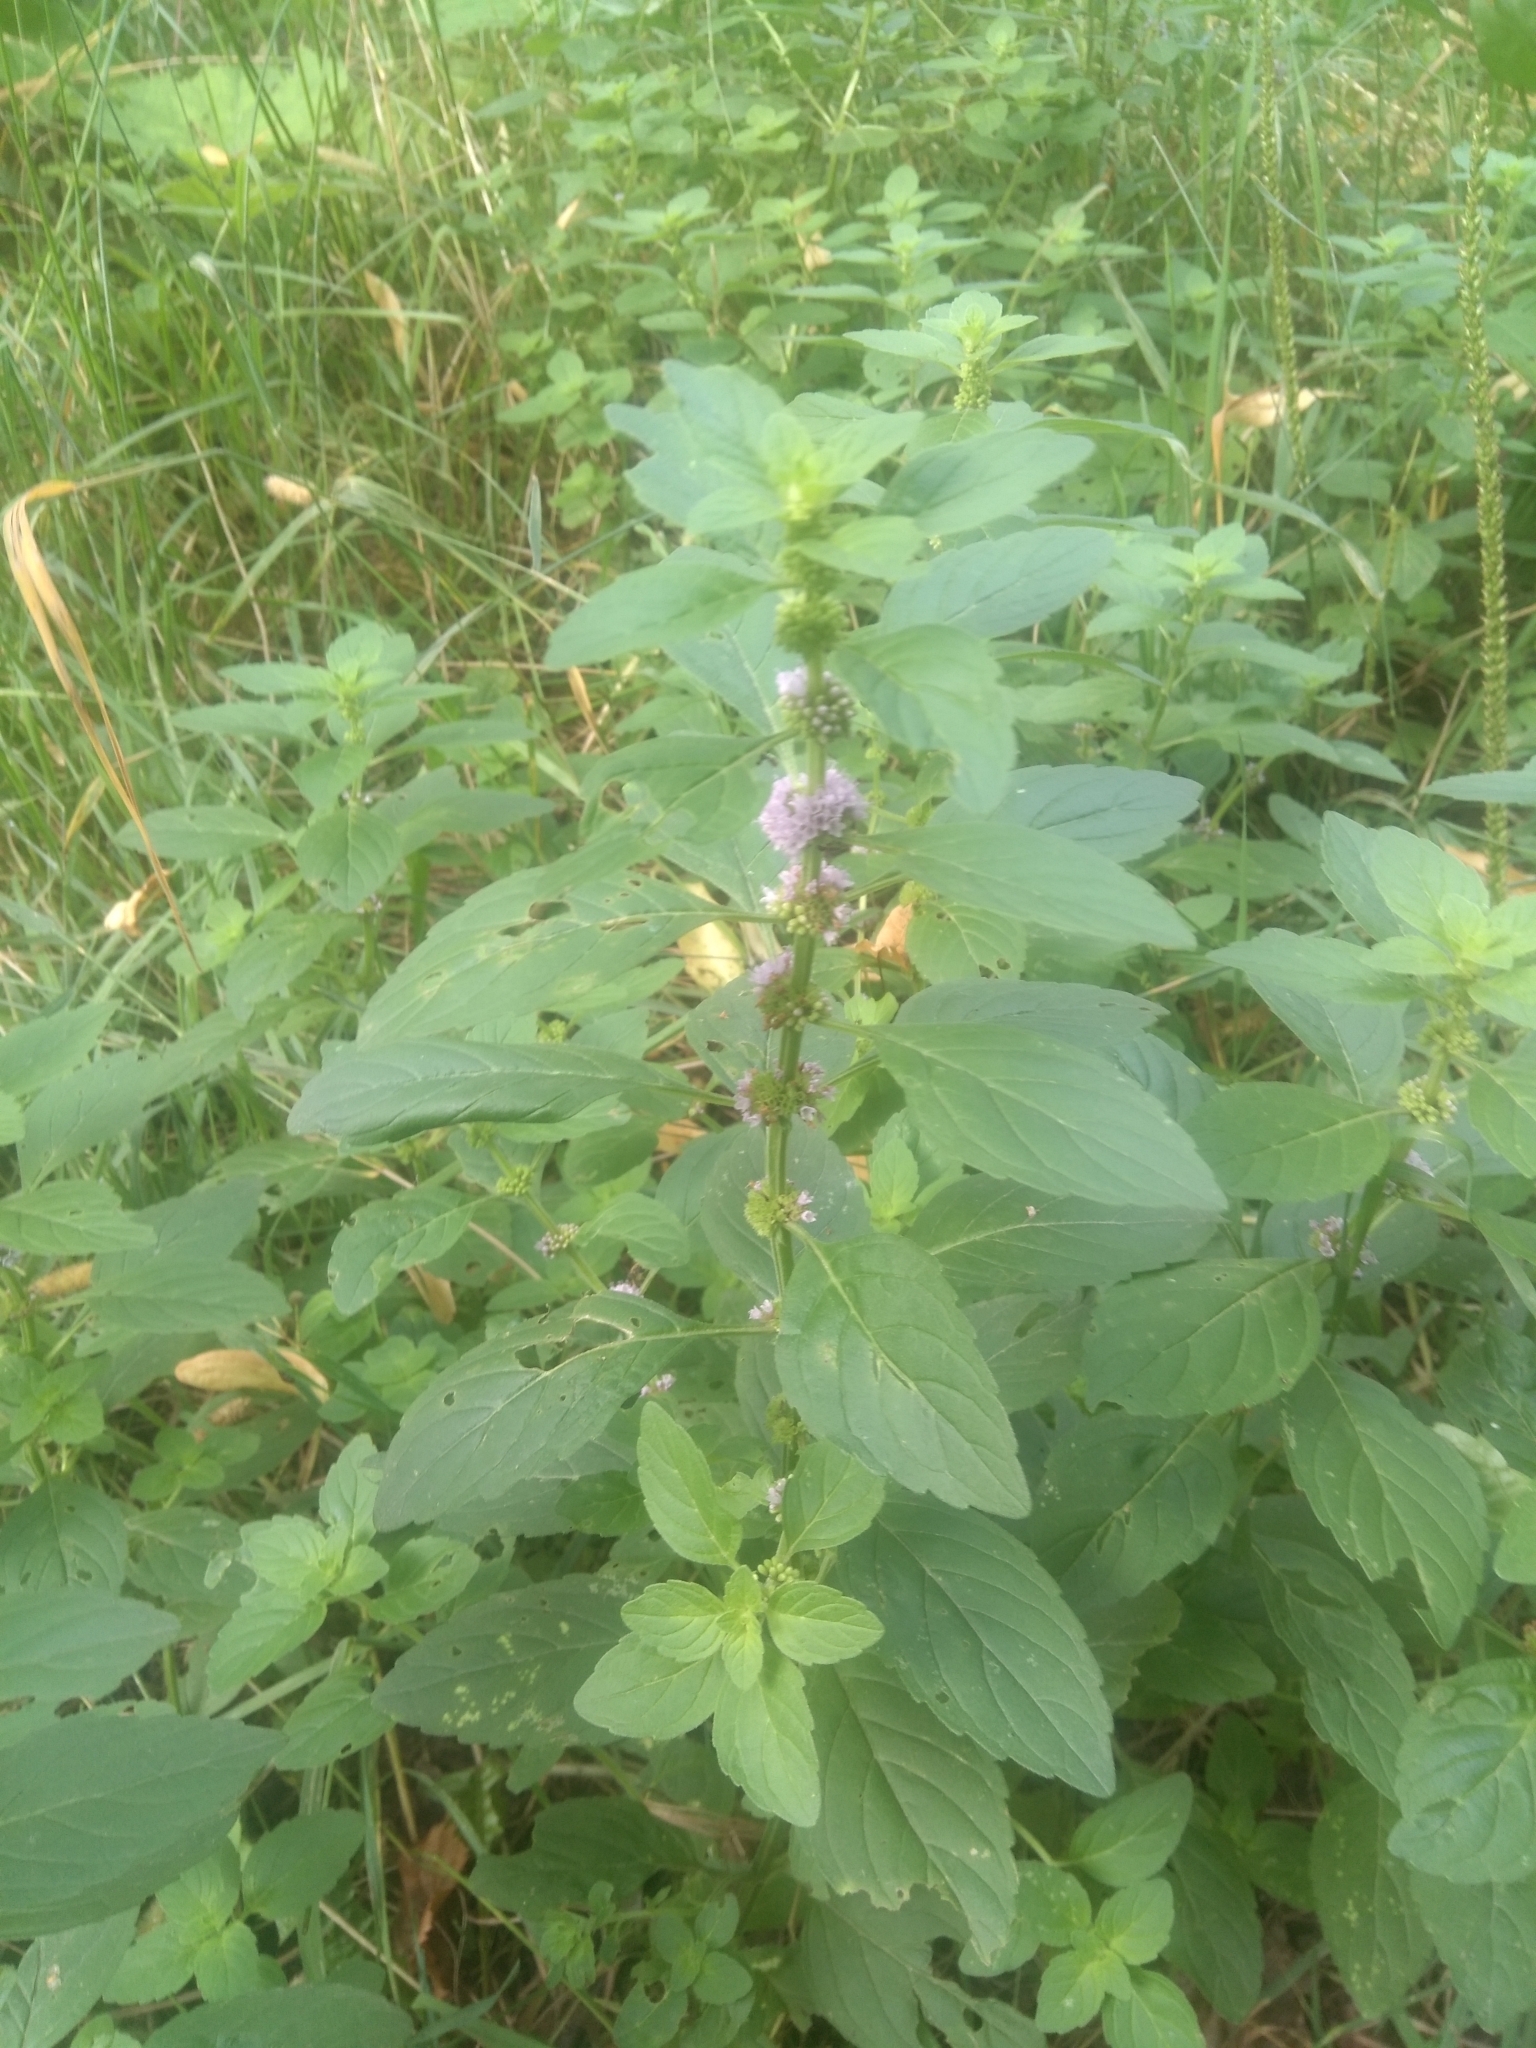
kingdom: Plantae
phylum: Tracheophyta
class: Magnoliopsida
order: Lamiales
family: Lamiaceae
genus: Mentha
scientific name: Mentha arvensis
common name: Corn mint
